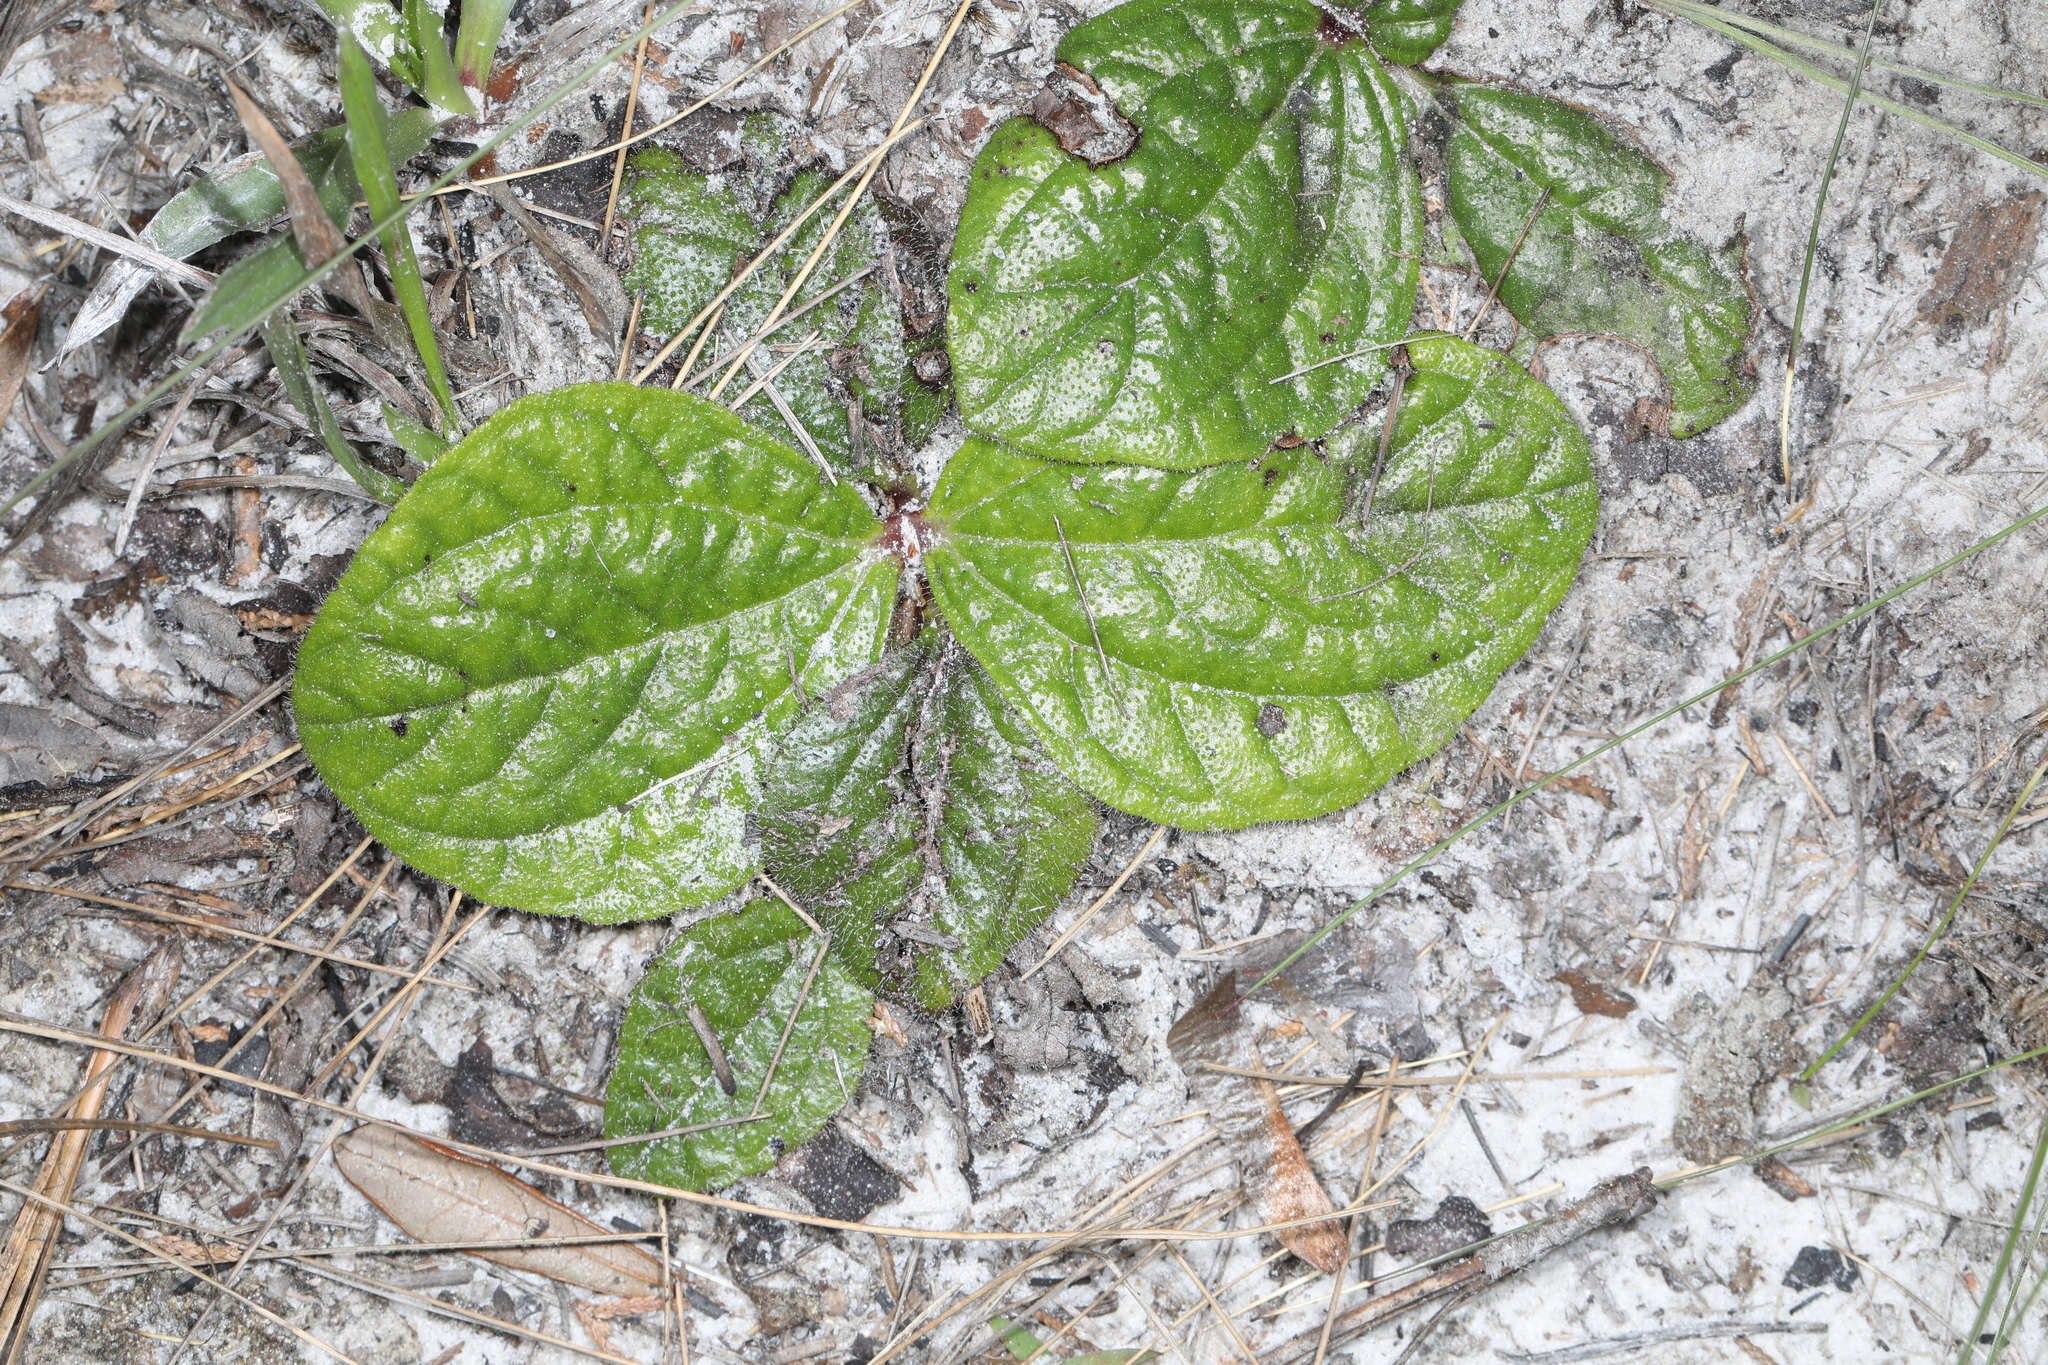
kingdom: Plantae
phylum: Tracheophyta
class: Magnoliopsida
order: Asterales
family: Asteraceae
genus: Helianthus
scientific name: Helianthus radula
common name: Pineland sunflower
